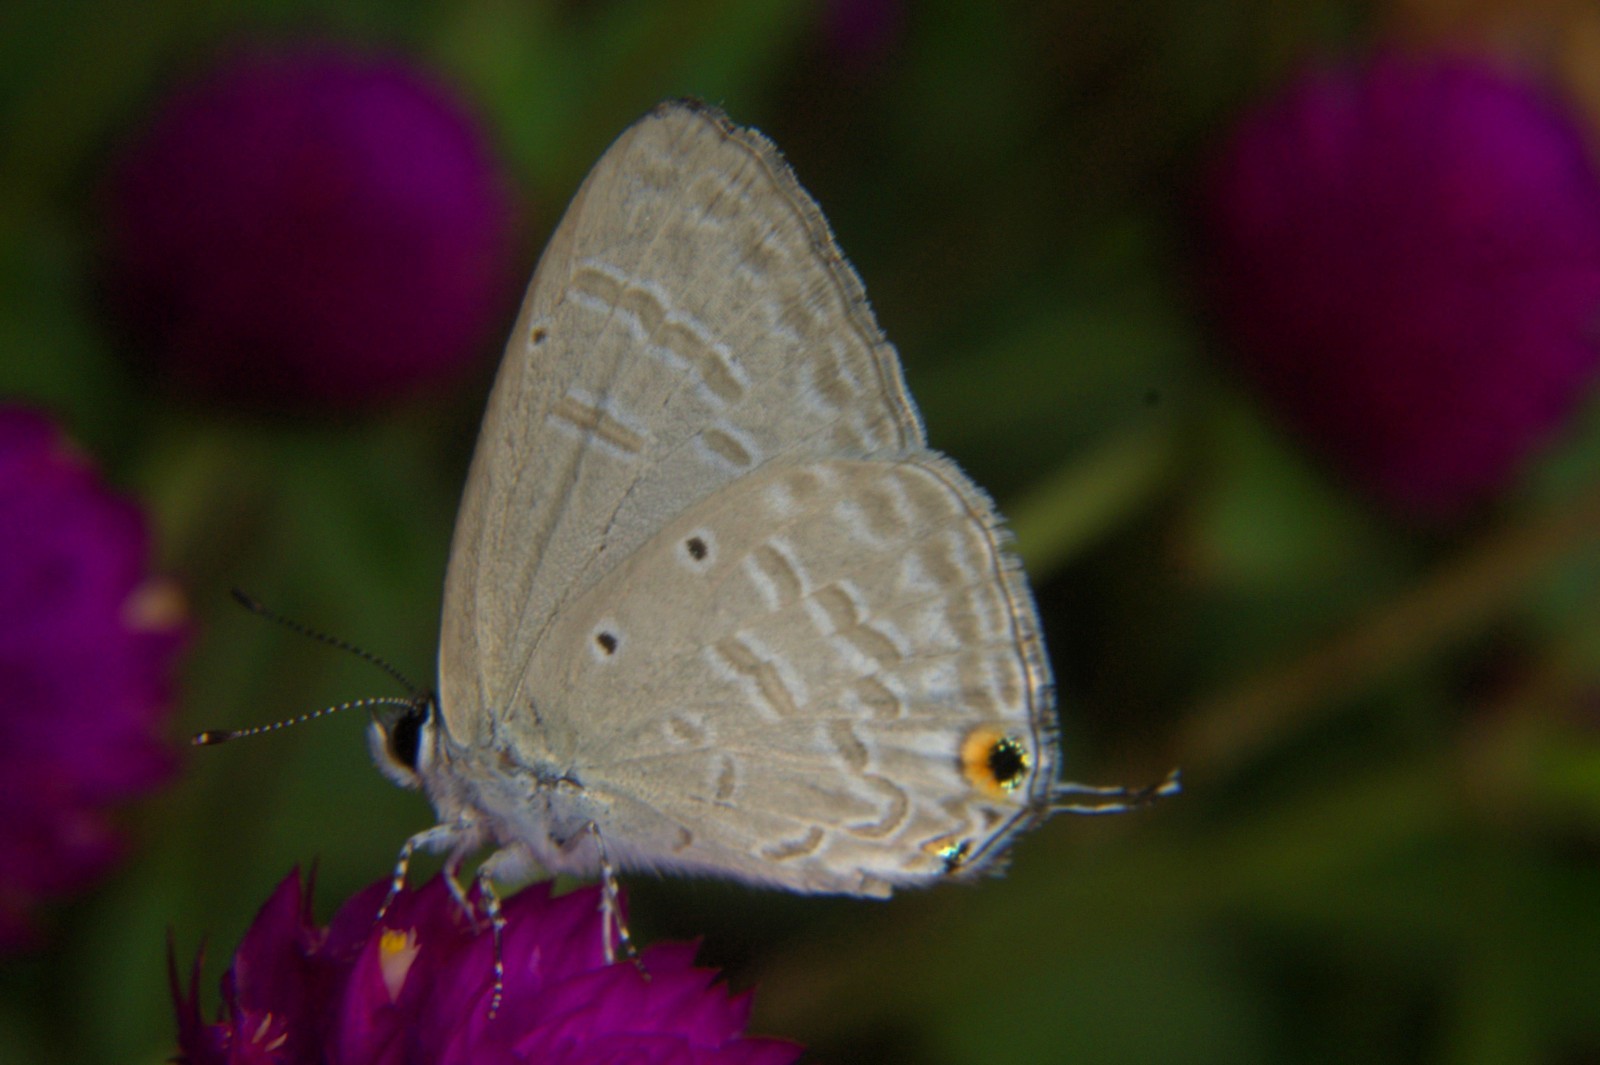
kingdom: Animalia
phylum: Arthropoda
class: Insecta
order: Lepidoptera
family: Lycaenidae
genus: Catochrysops
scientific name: Catochrysops strabo
